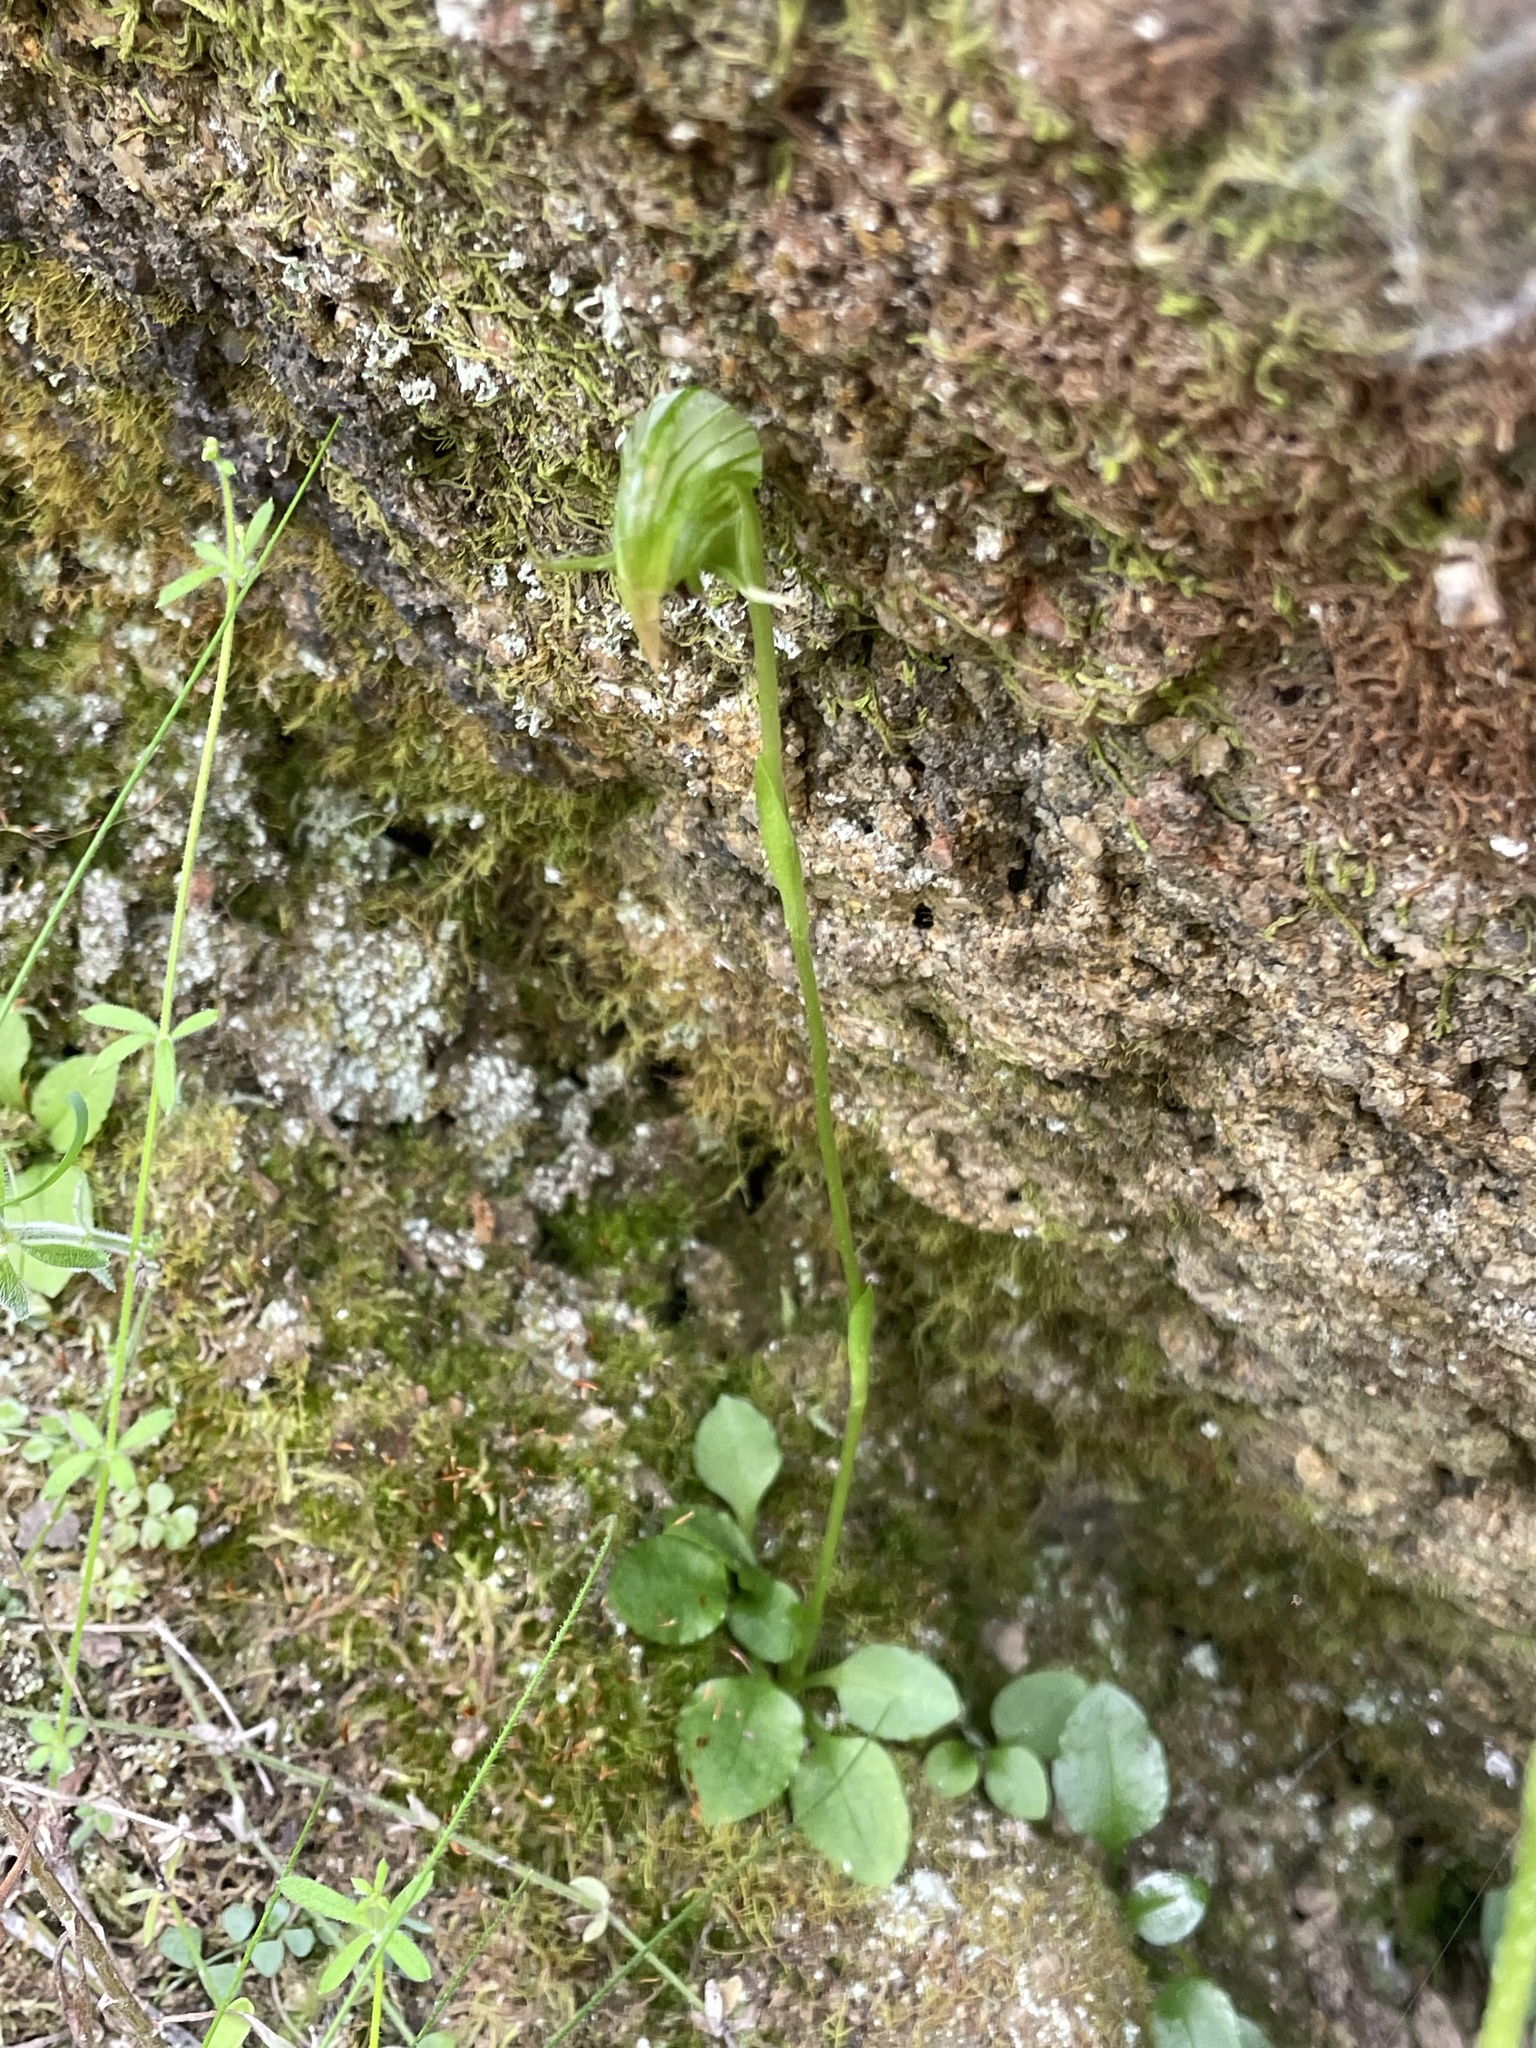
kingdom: Plantae
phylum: Tracheophyta
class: Liliopsida
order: Asparagales
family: Orchidaceae
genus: Pterostylis
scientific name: Pterostylis nutans
